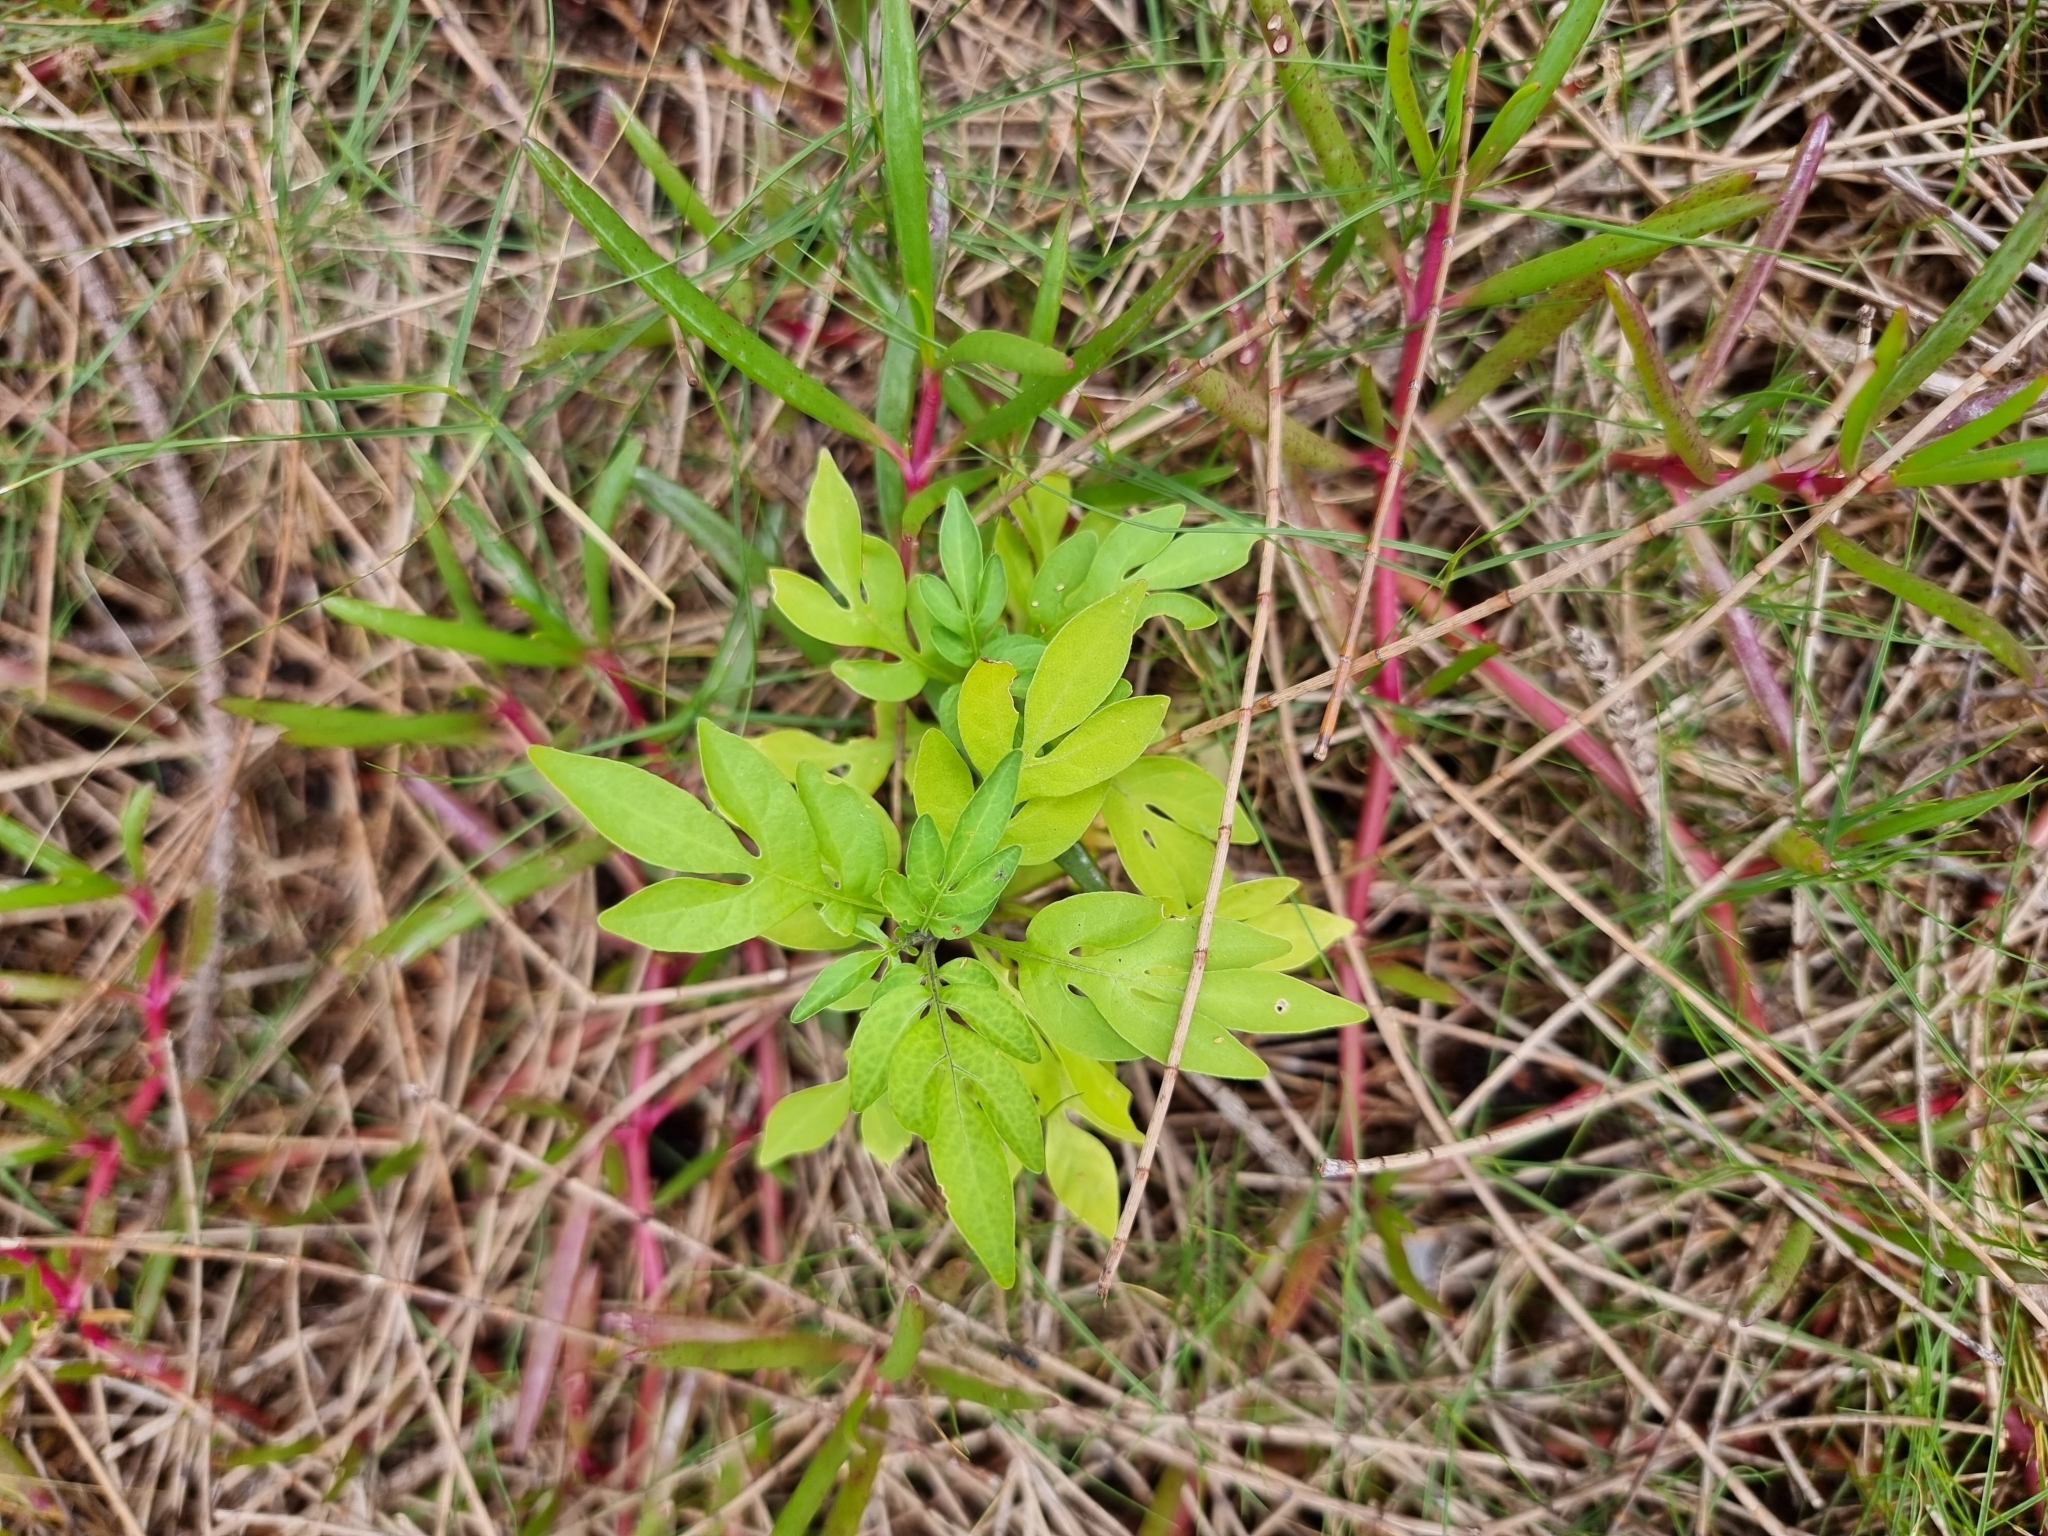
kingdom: Plantae
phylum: Tracheophyta
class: Magnoliopsida
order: Solanales
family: Solanaceae
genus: Solanum
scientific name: Solanum seaforthianum
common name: Brazilian nightshade
